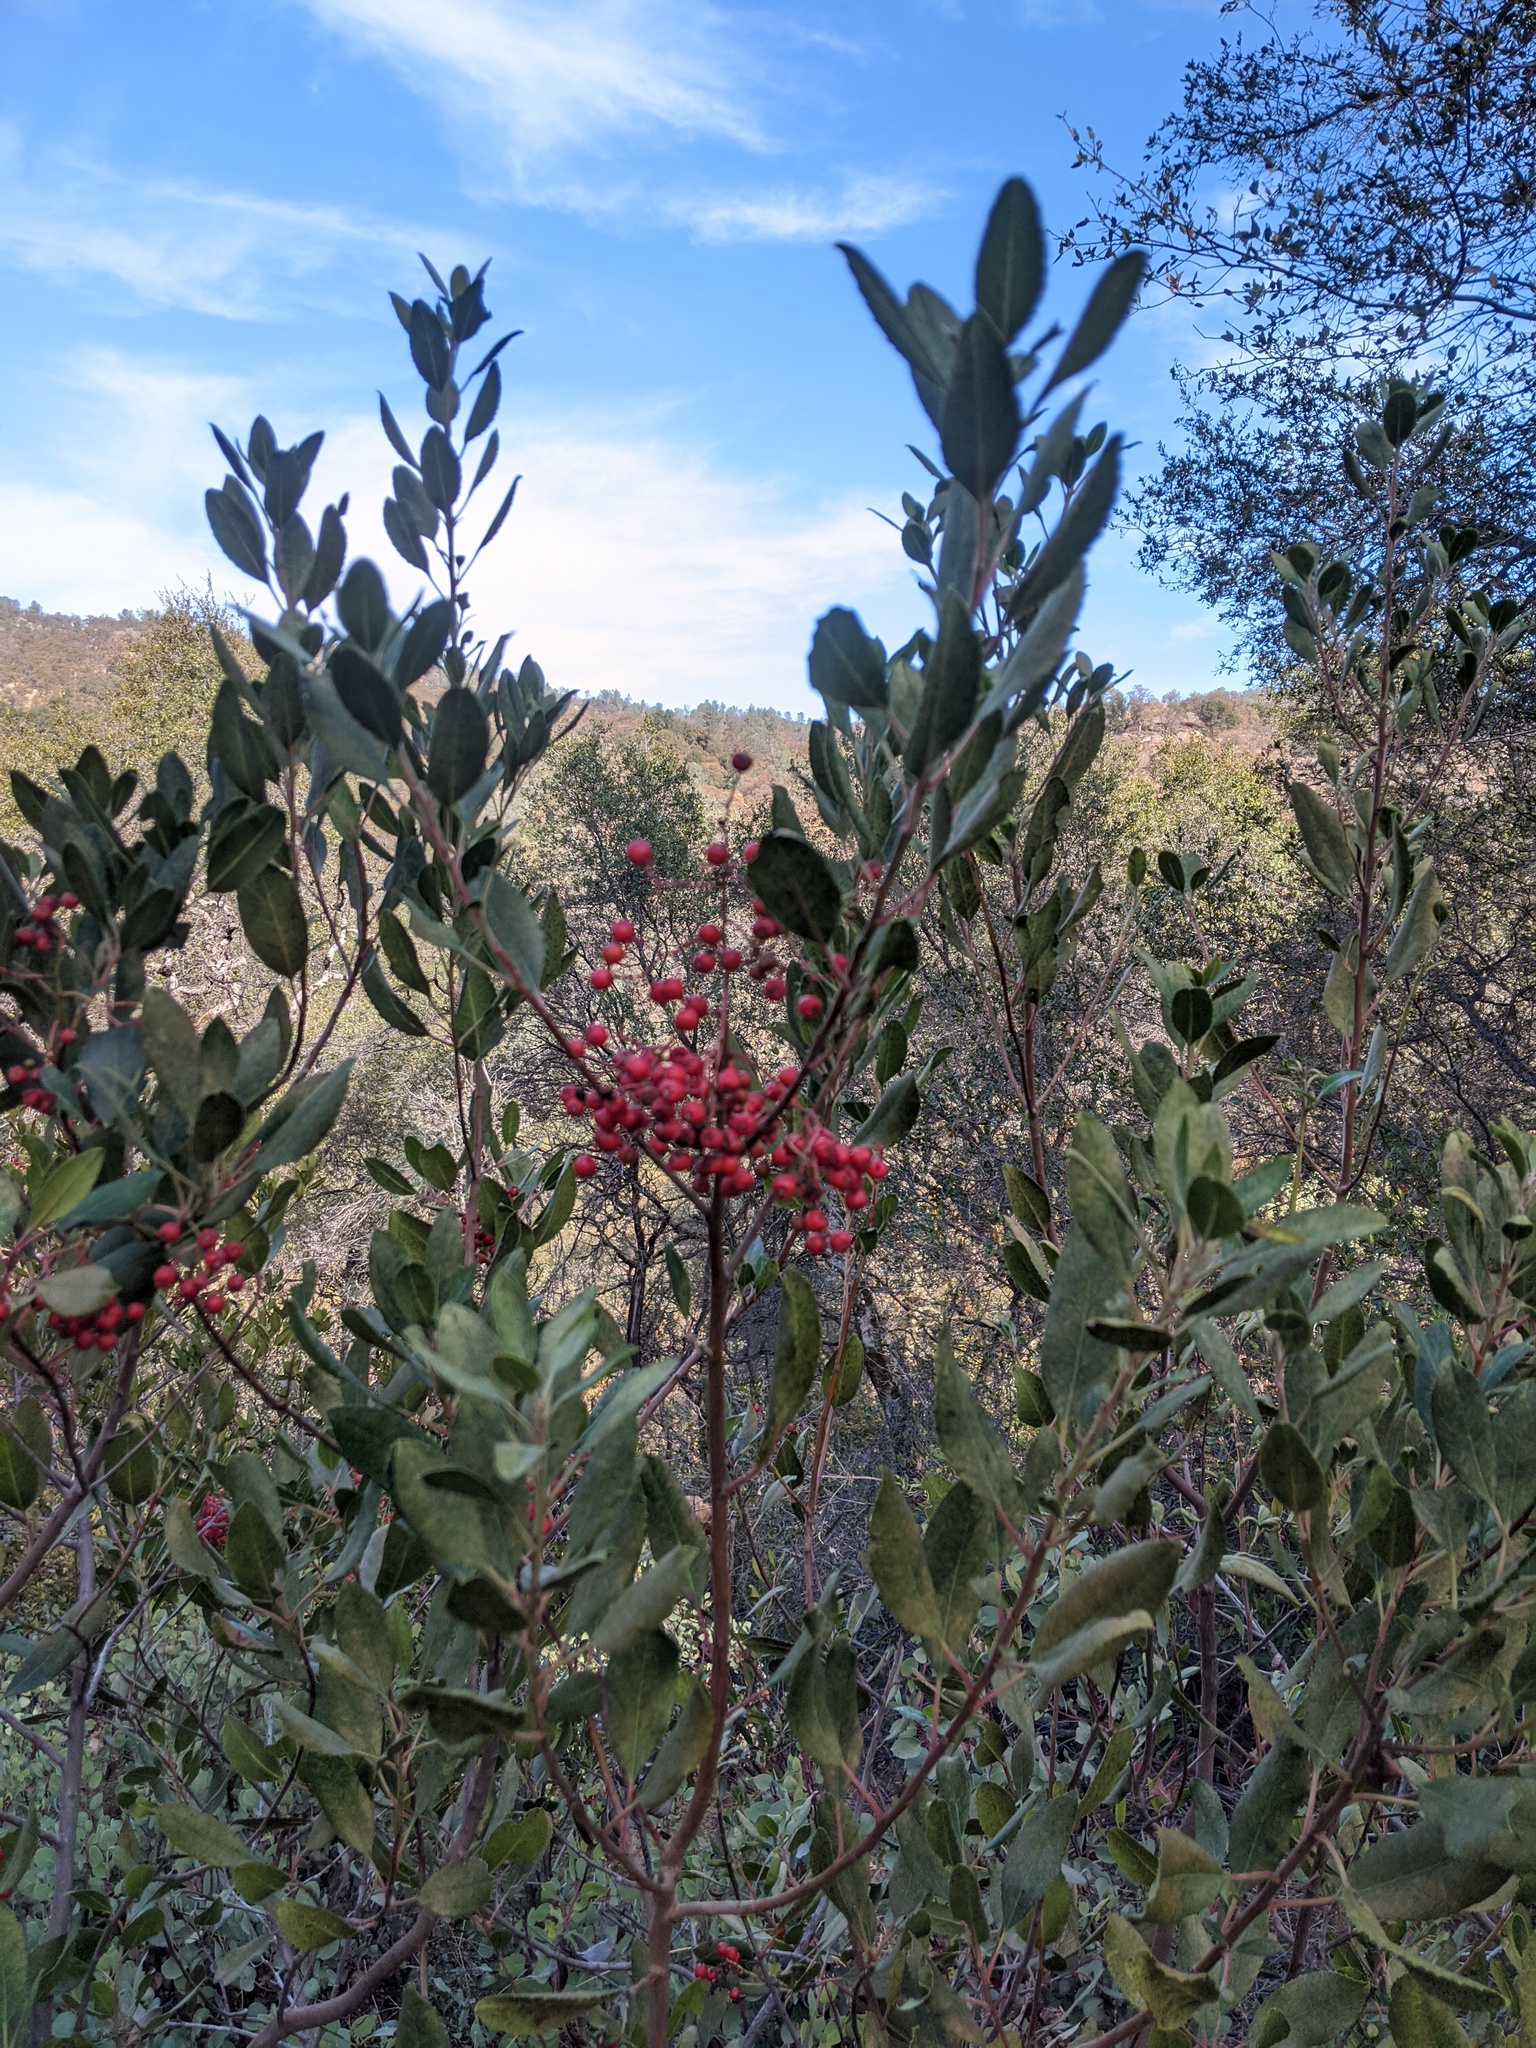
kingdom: Plantae
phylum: Tracheophyta
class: Magnoliopsida
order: Rosales
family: Rosaceae
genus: Heteromeles
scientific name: Heteromeles arbutifolia
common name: California-holly
